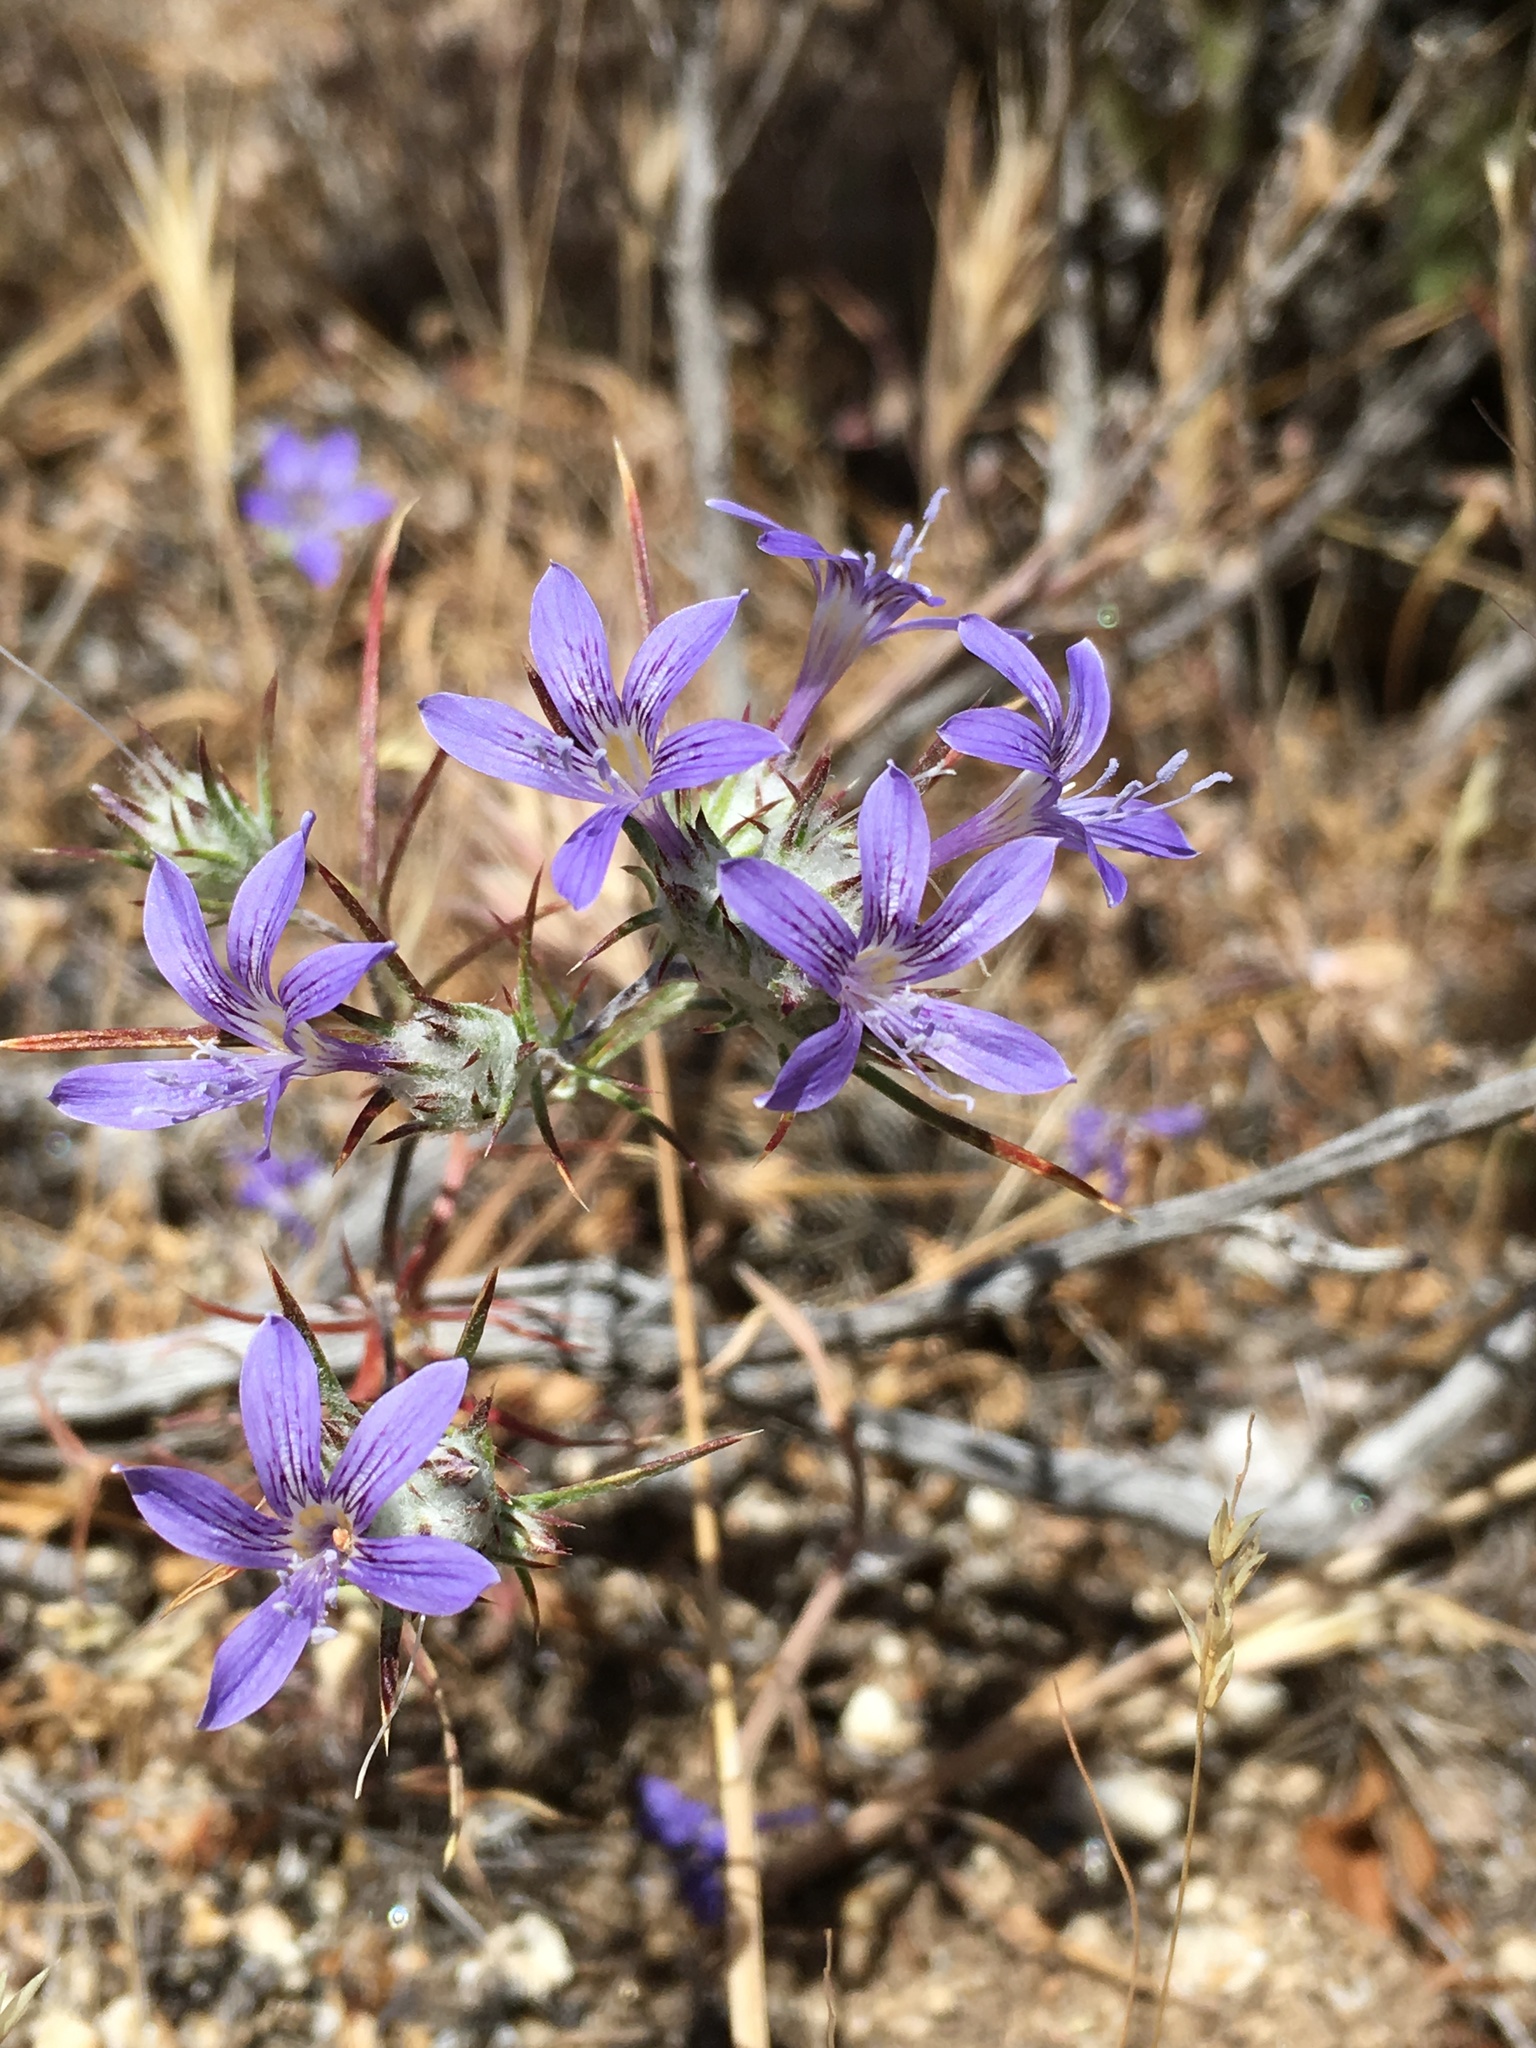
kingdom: Plantae
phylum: Tracheophyta
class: Magnoliopsida
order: Ericales
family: Polemoniaceae
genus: Eriastrum
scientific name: Eriastrum eremicum
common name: Desert eriastrum
